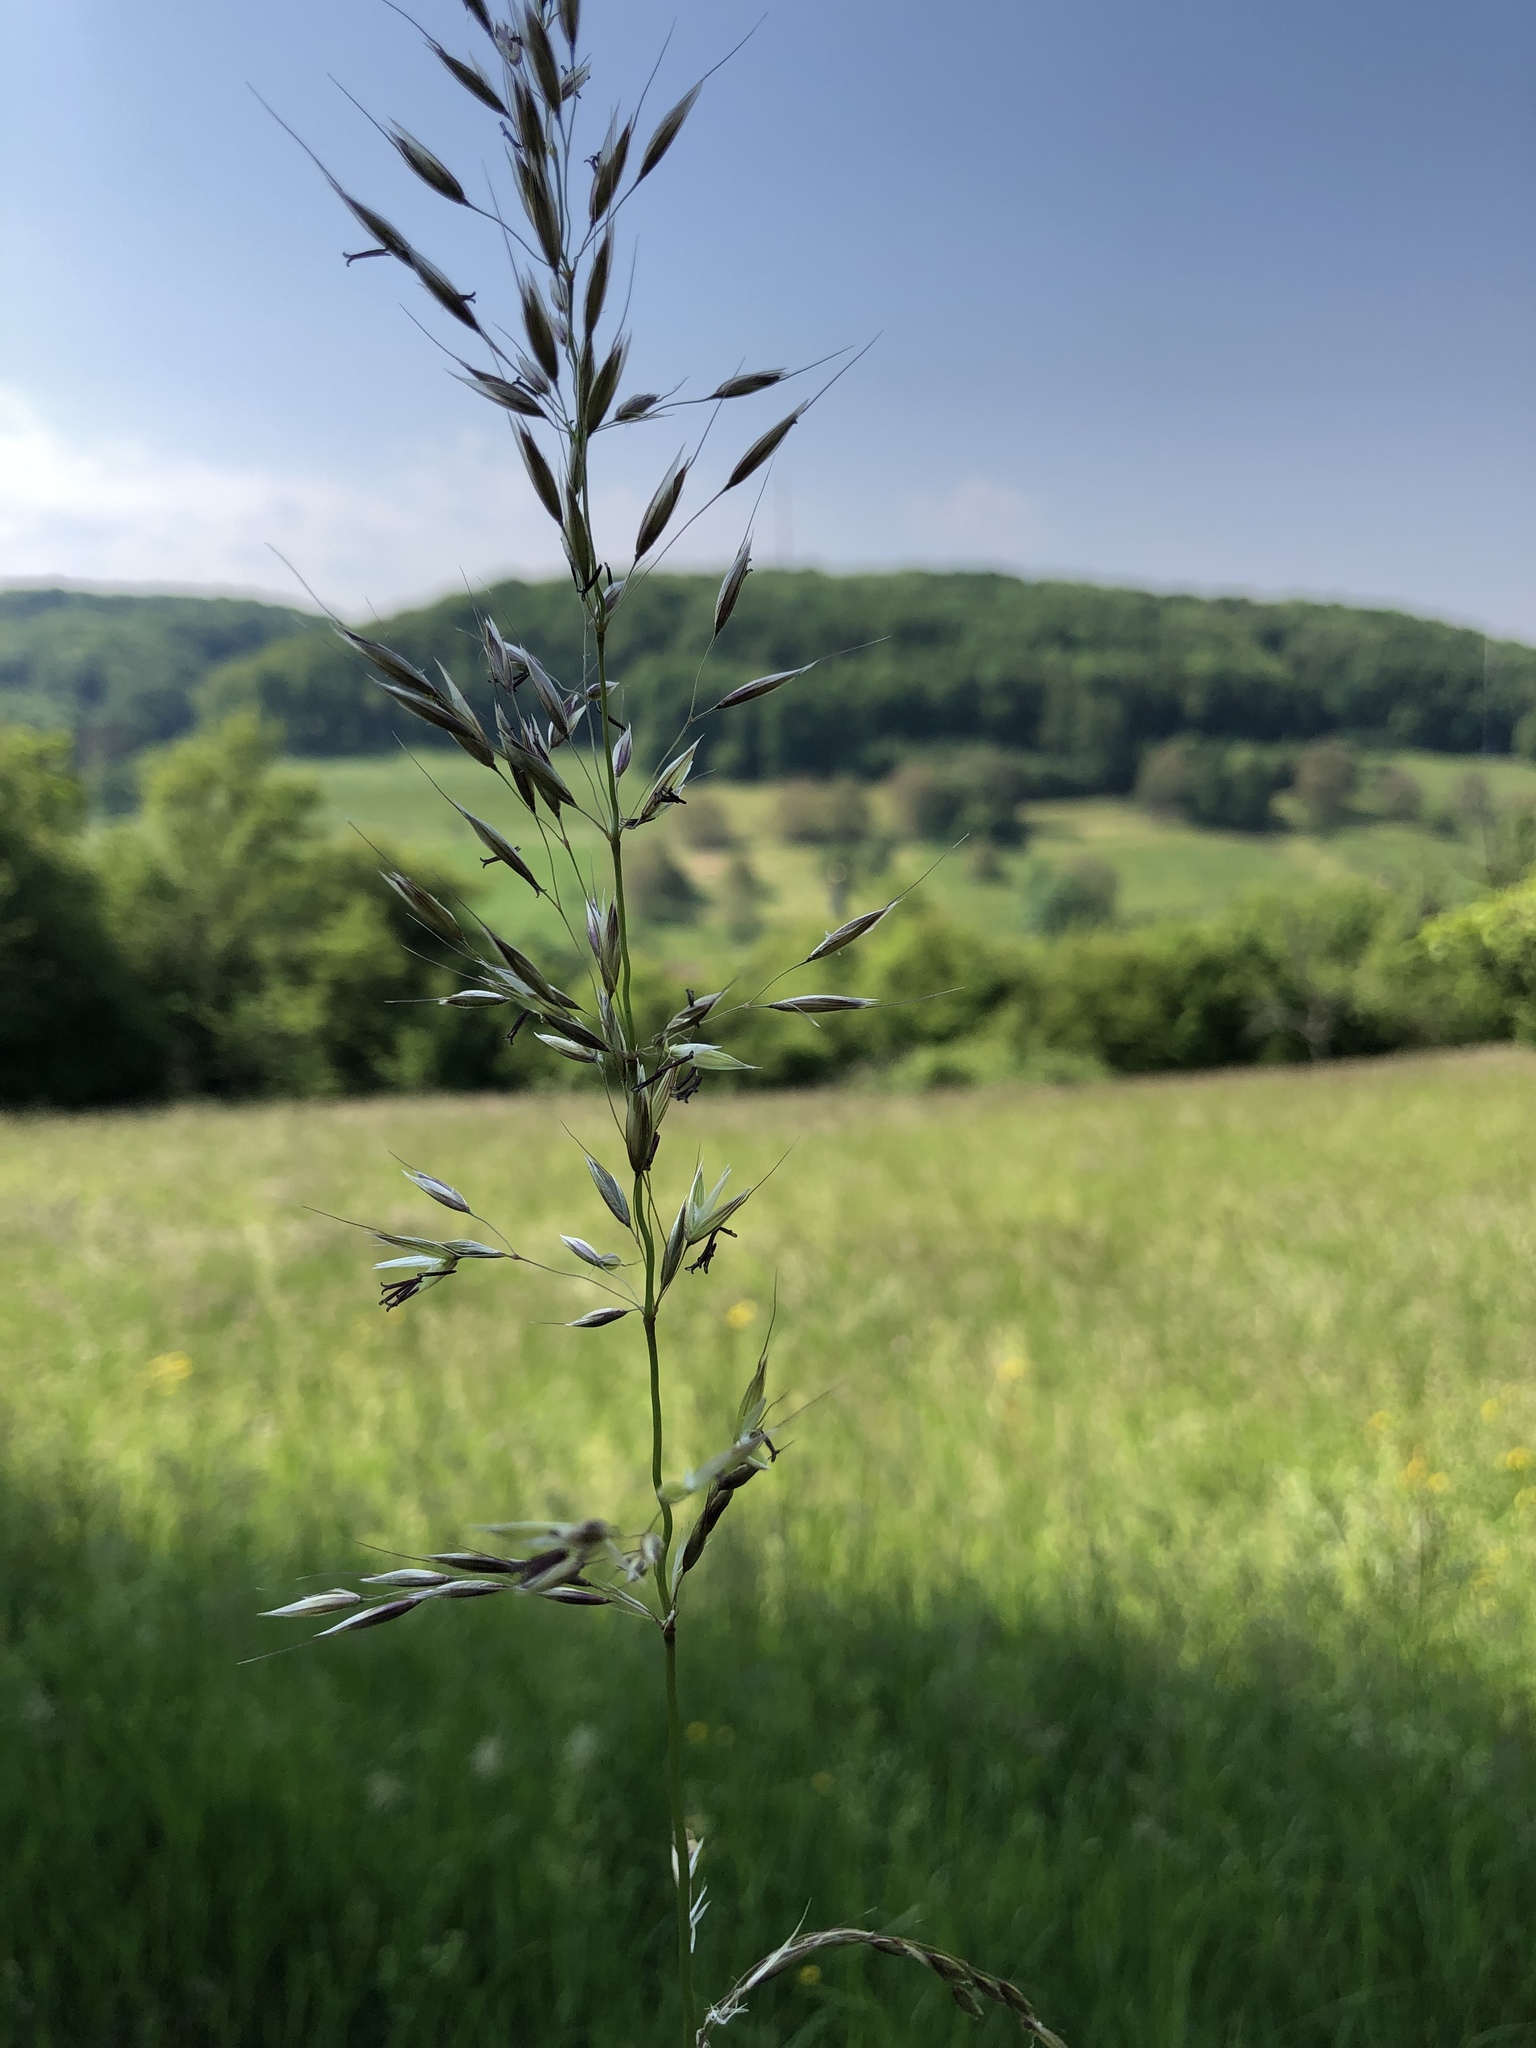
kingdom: Plantae
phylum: Tracheophyta
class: Liliopsida
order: Poales
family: Poaceae
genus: Arrhenatherum
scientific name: Arrhenatherum elatius
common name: Tall oatgrass
